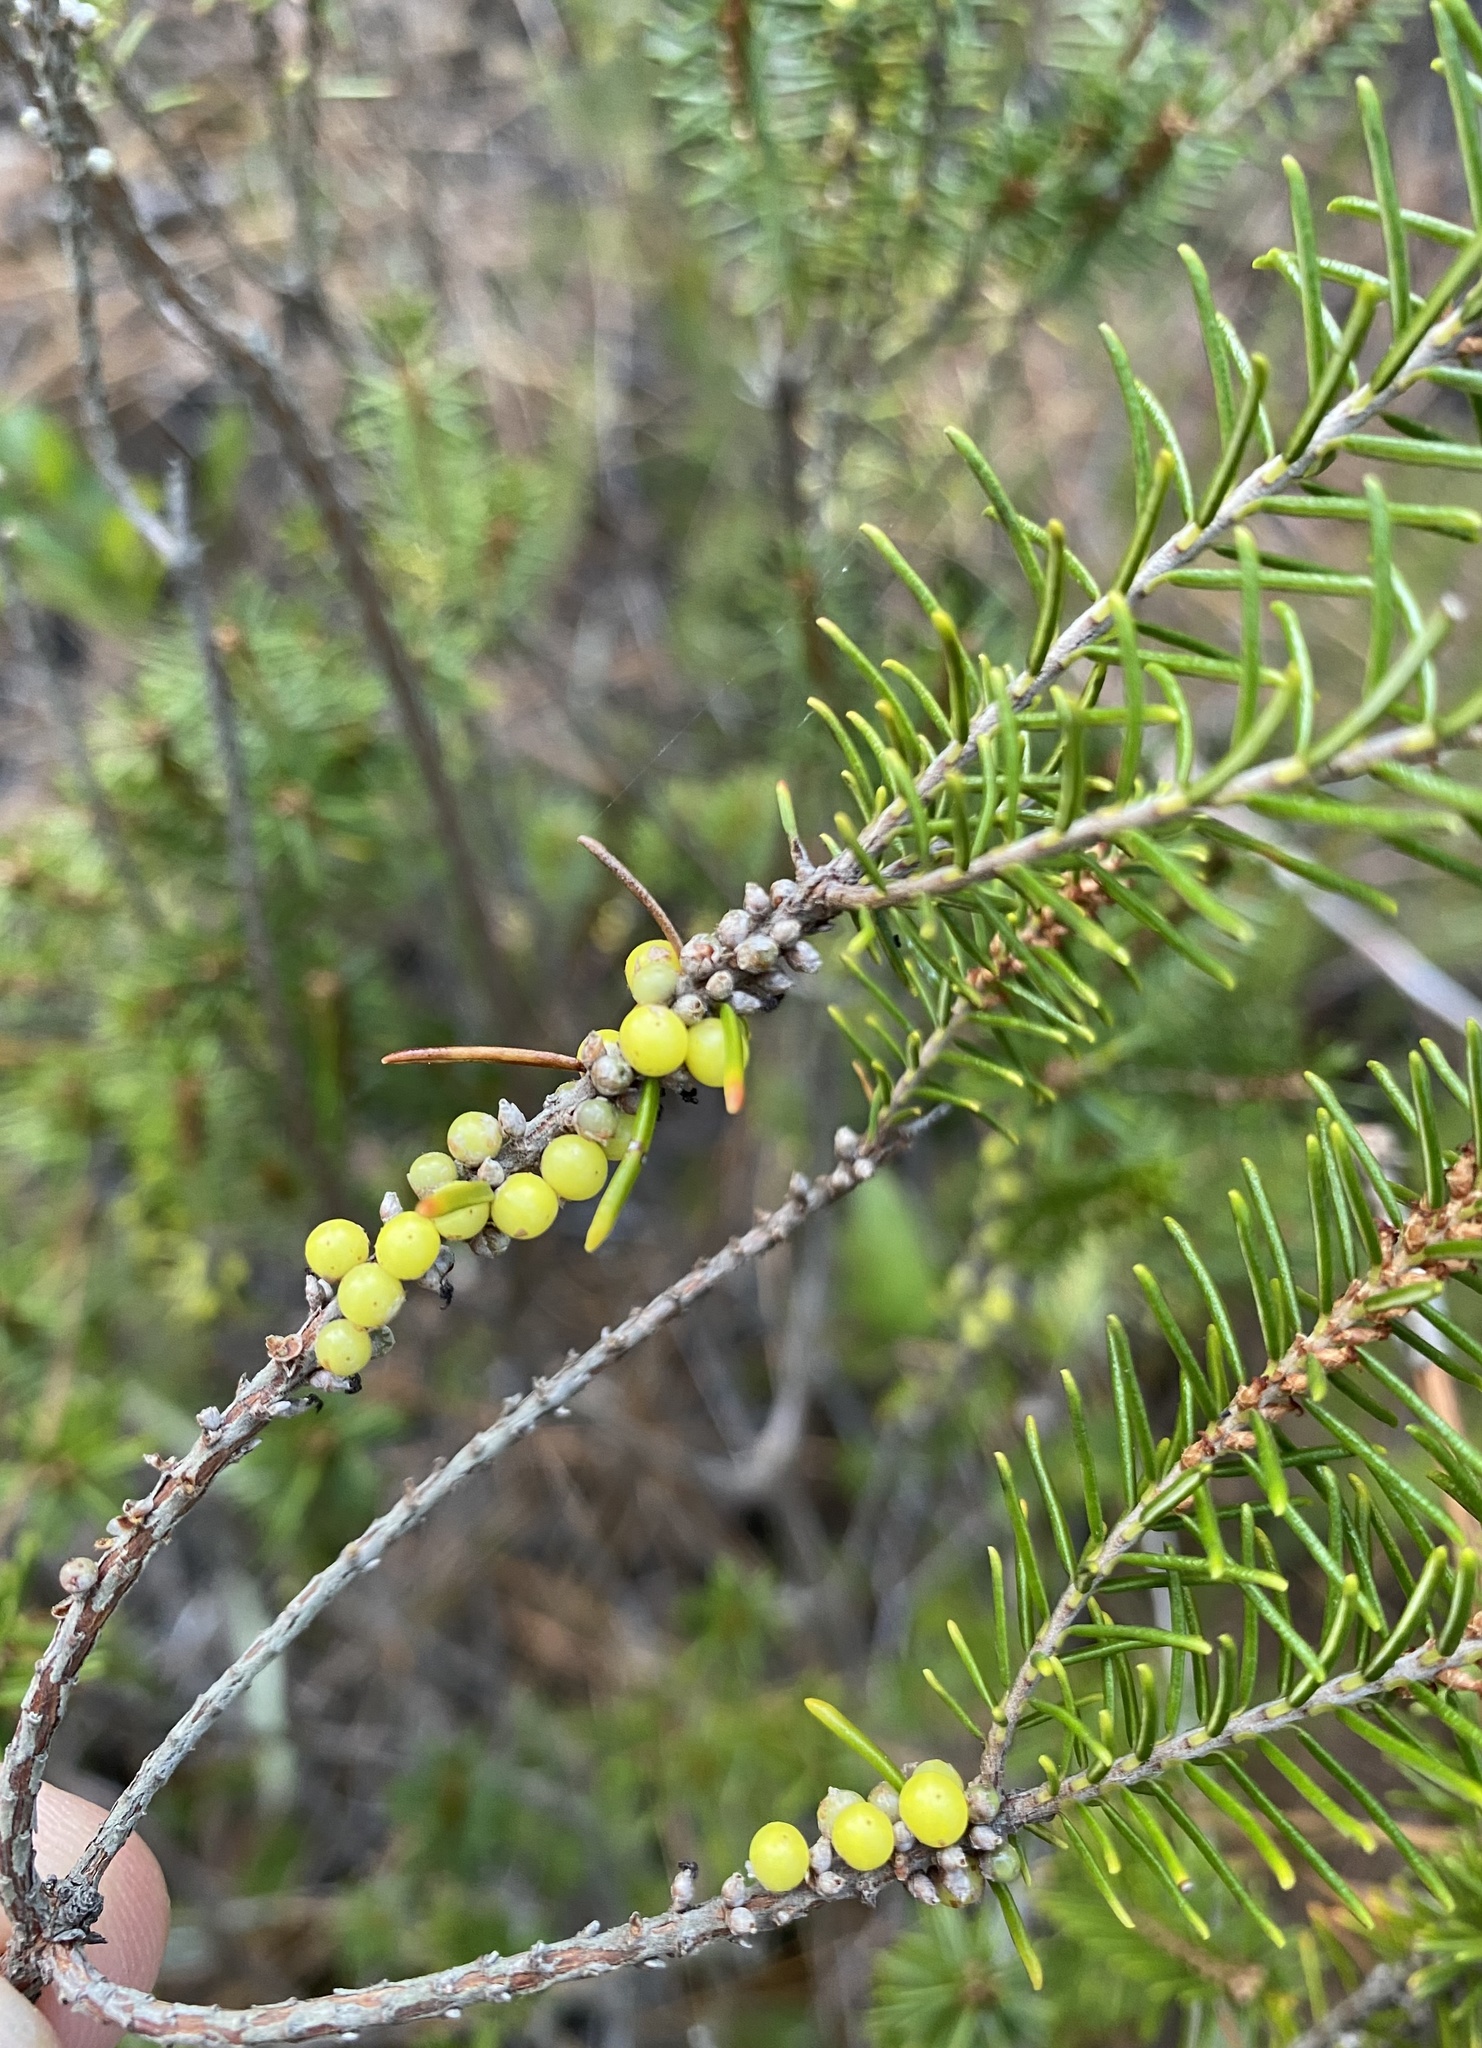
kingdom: Plantae
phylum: Tracheophyta
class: Magnoliopsida
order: Ericales
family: Ericaceae
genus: Ceratiola
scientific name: Ceratiola ericoides
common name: Sandhill-rosemary
